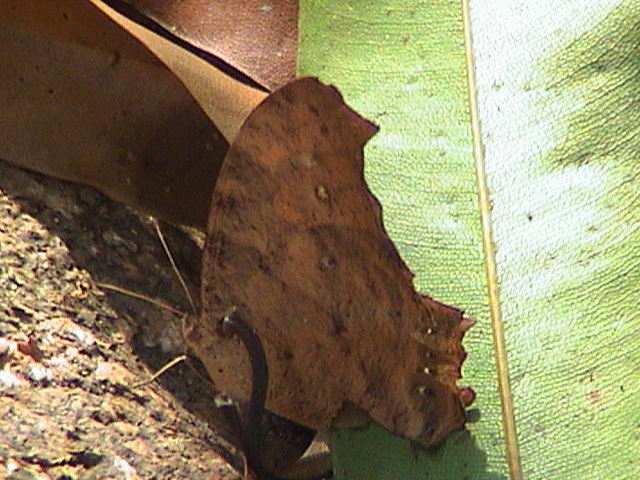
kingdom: Animalia
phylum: Arthropoda
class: Insecta
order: Lepidoptera
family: Nymphalidae
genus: Melanitis
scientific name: Melanitis leda
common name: Twilight brown
